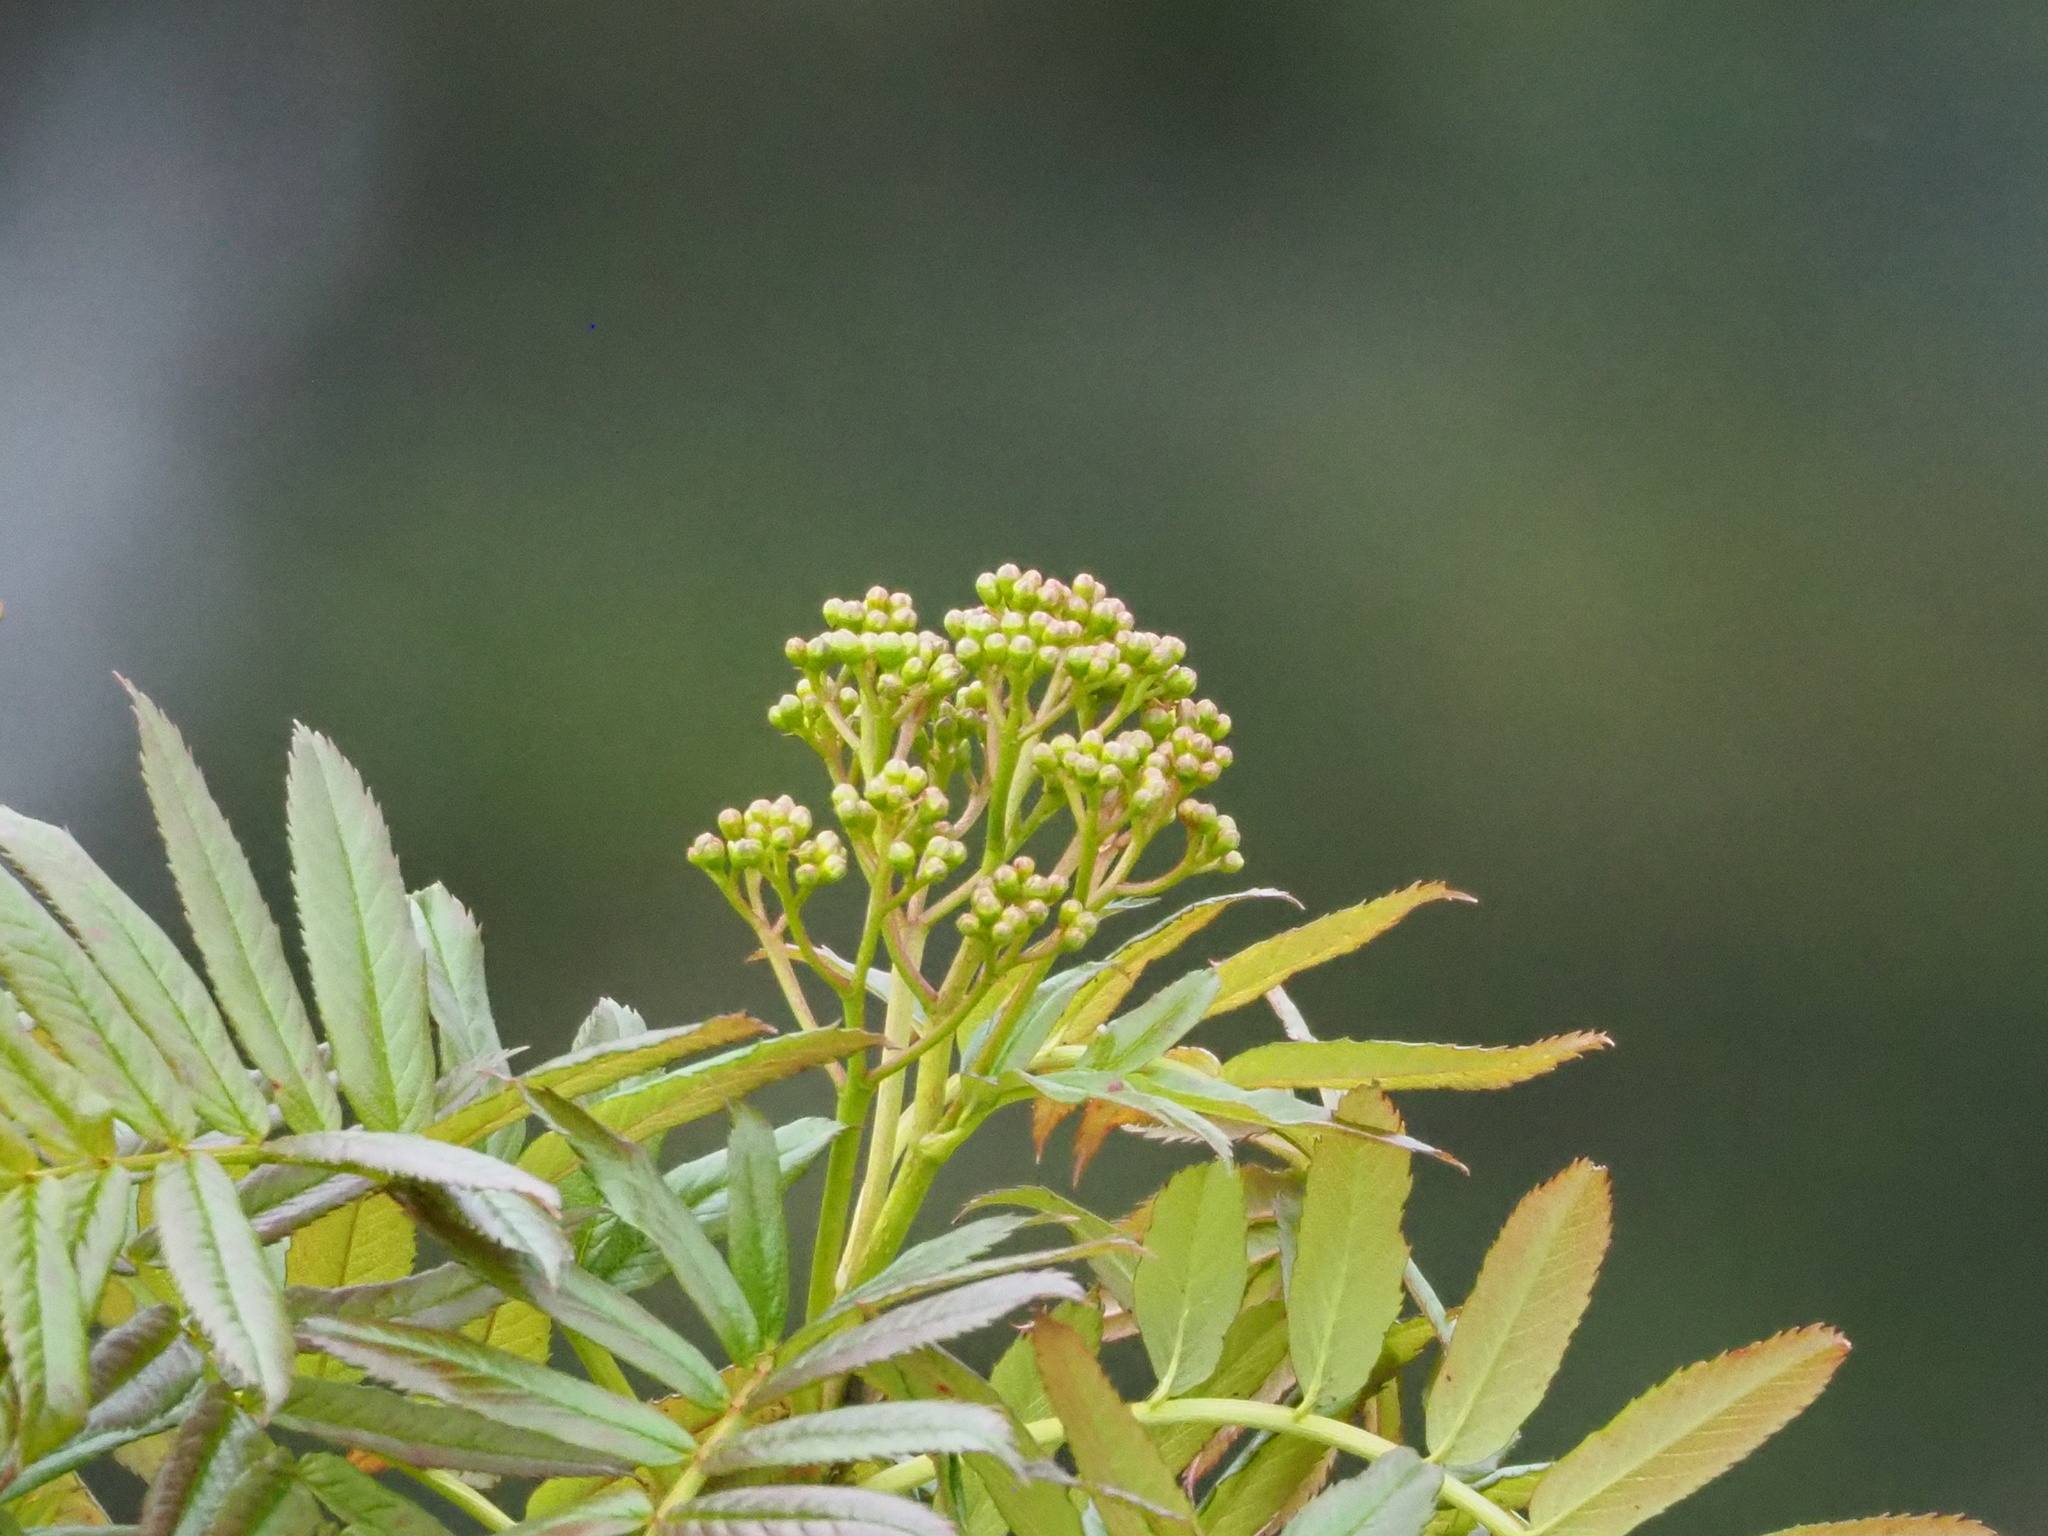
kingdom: Plantae
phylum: Tracheophyta
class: Magnoliopsida
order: Rosales
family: Rosaceae
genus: Sorbus
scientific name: Sorbus randaiensis
